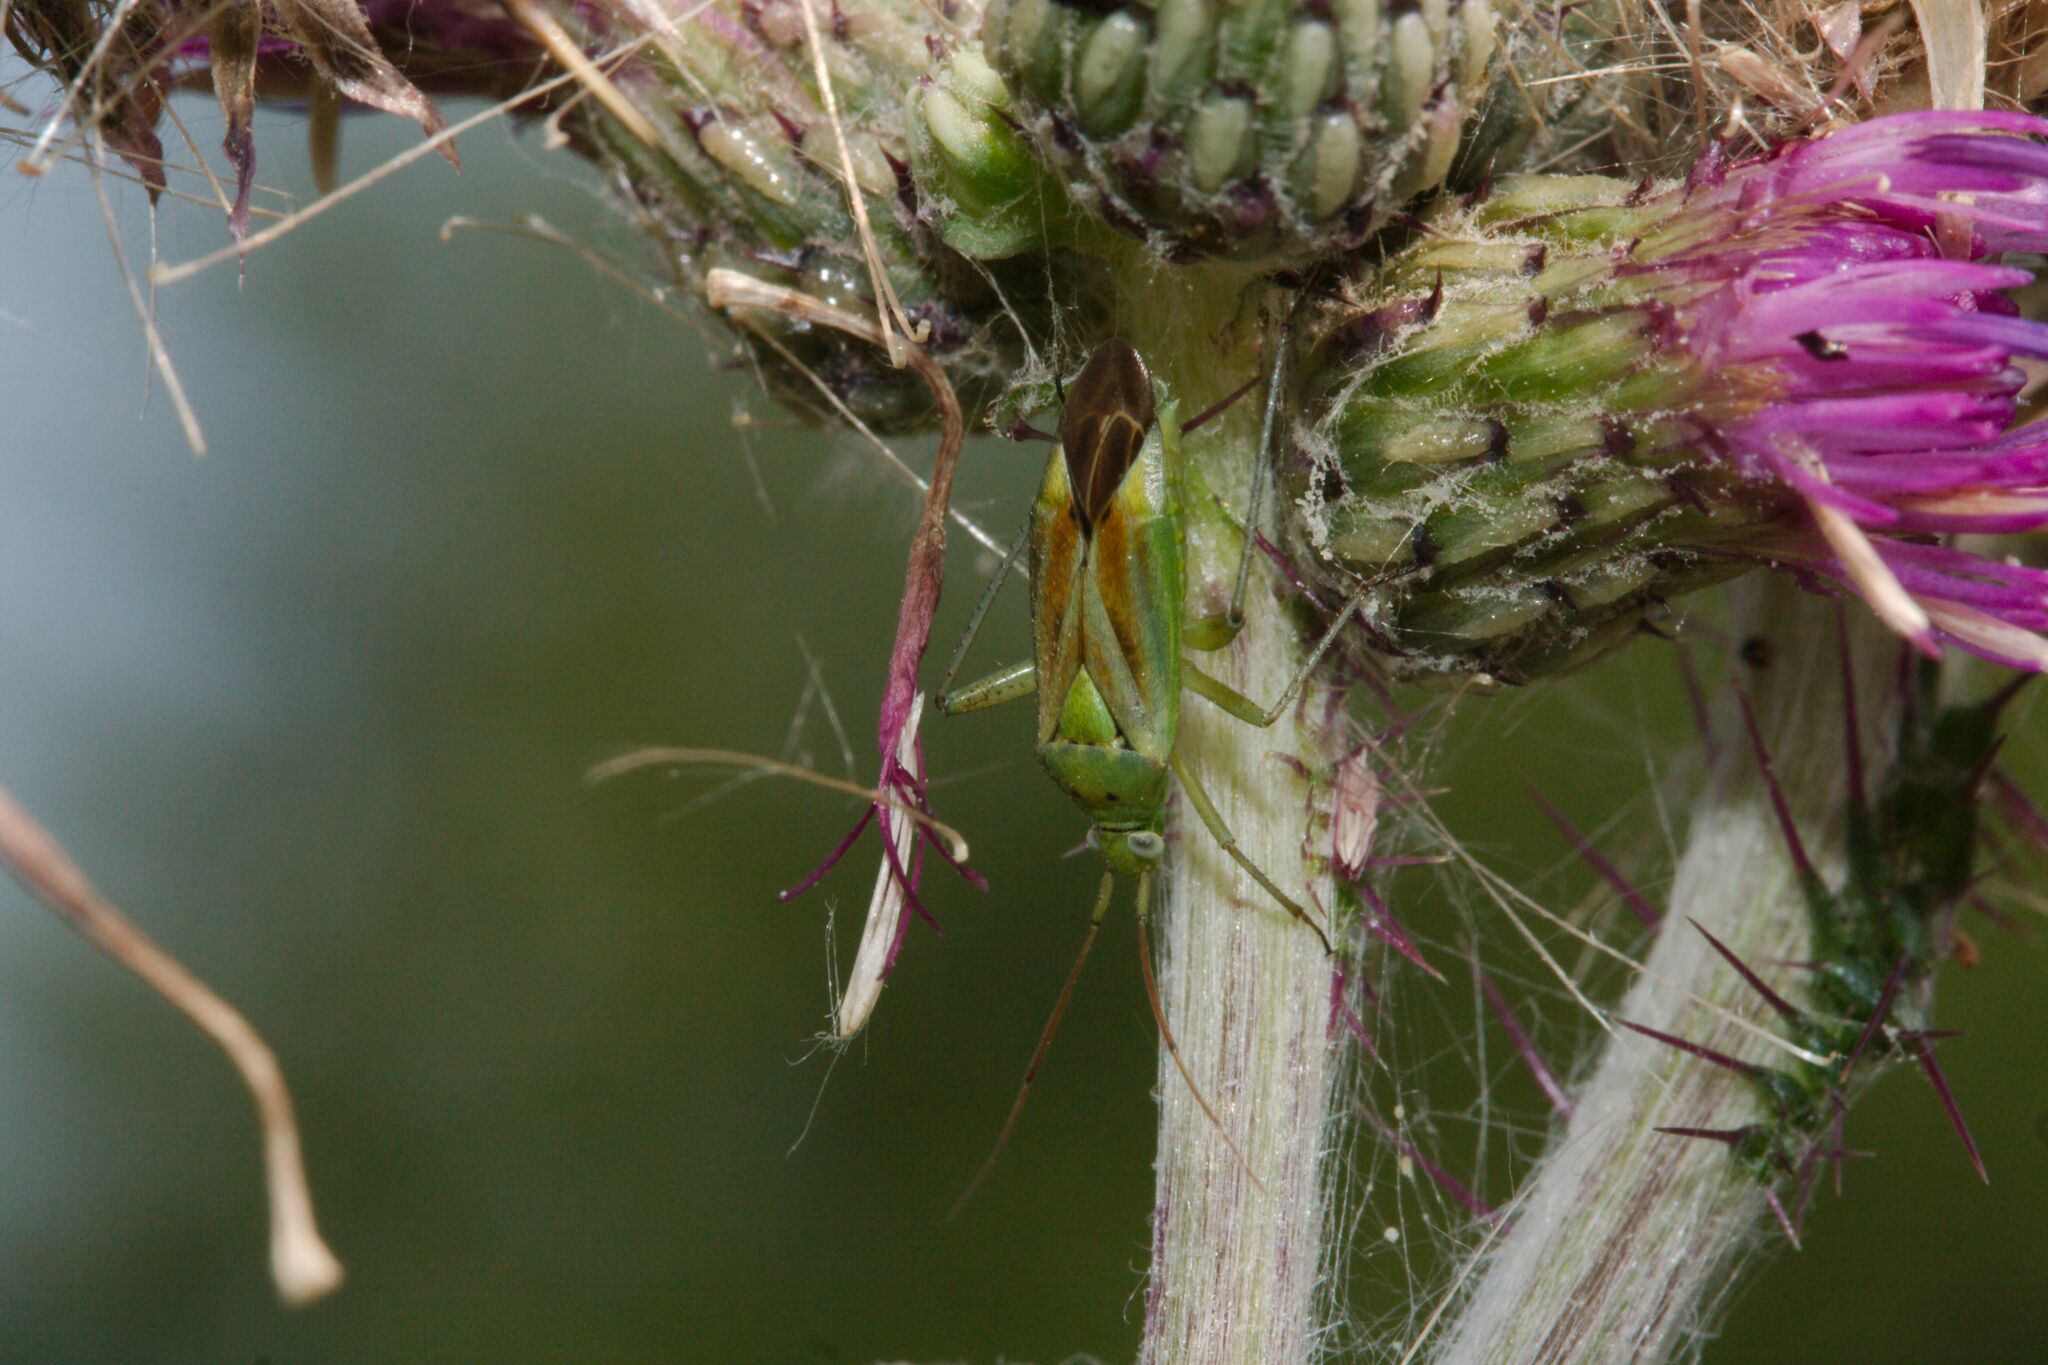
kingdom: Animalia
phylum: Arthropoda
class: Insecta
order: Hemiptera
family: Miridae
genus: Closterotomus
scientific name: Closterotomus norvegicus
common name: Plant bug
